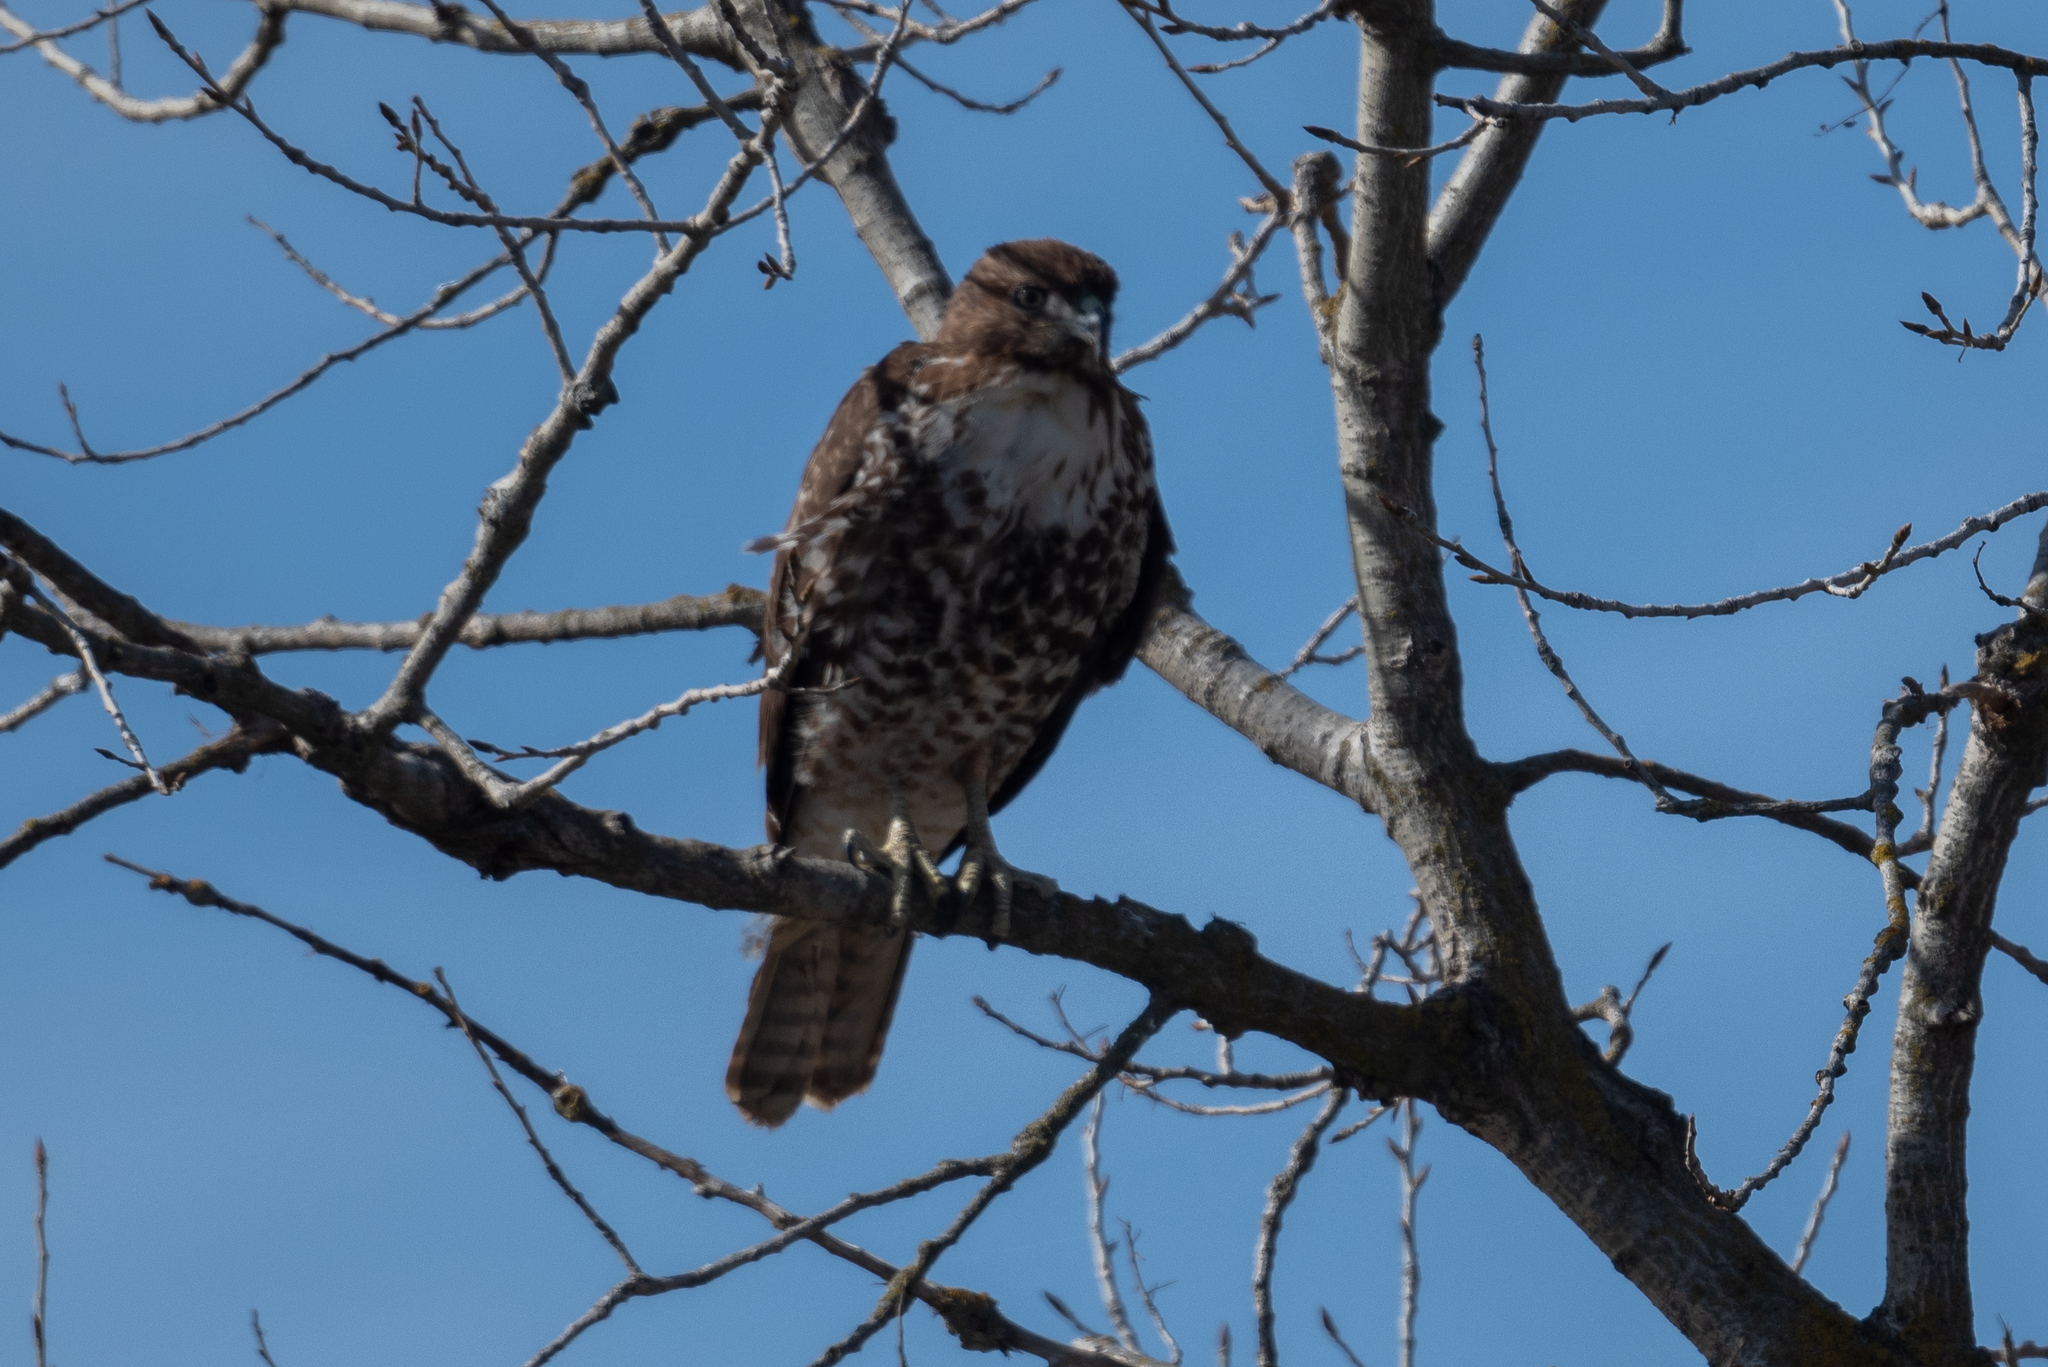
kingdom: Animalia
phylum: Chordata
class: Aves
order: Accipitriformes
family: Accipitridae
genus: Buteo
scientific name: Buteo jamaicensis
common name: Red-tailed hawk
